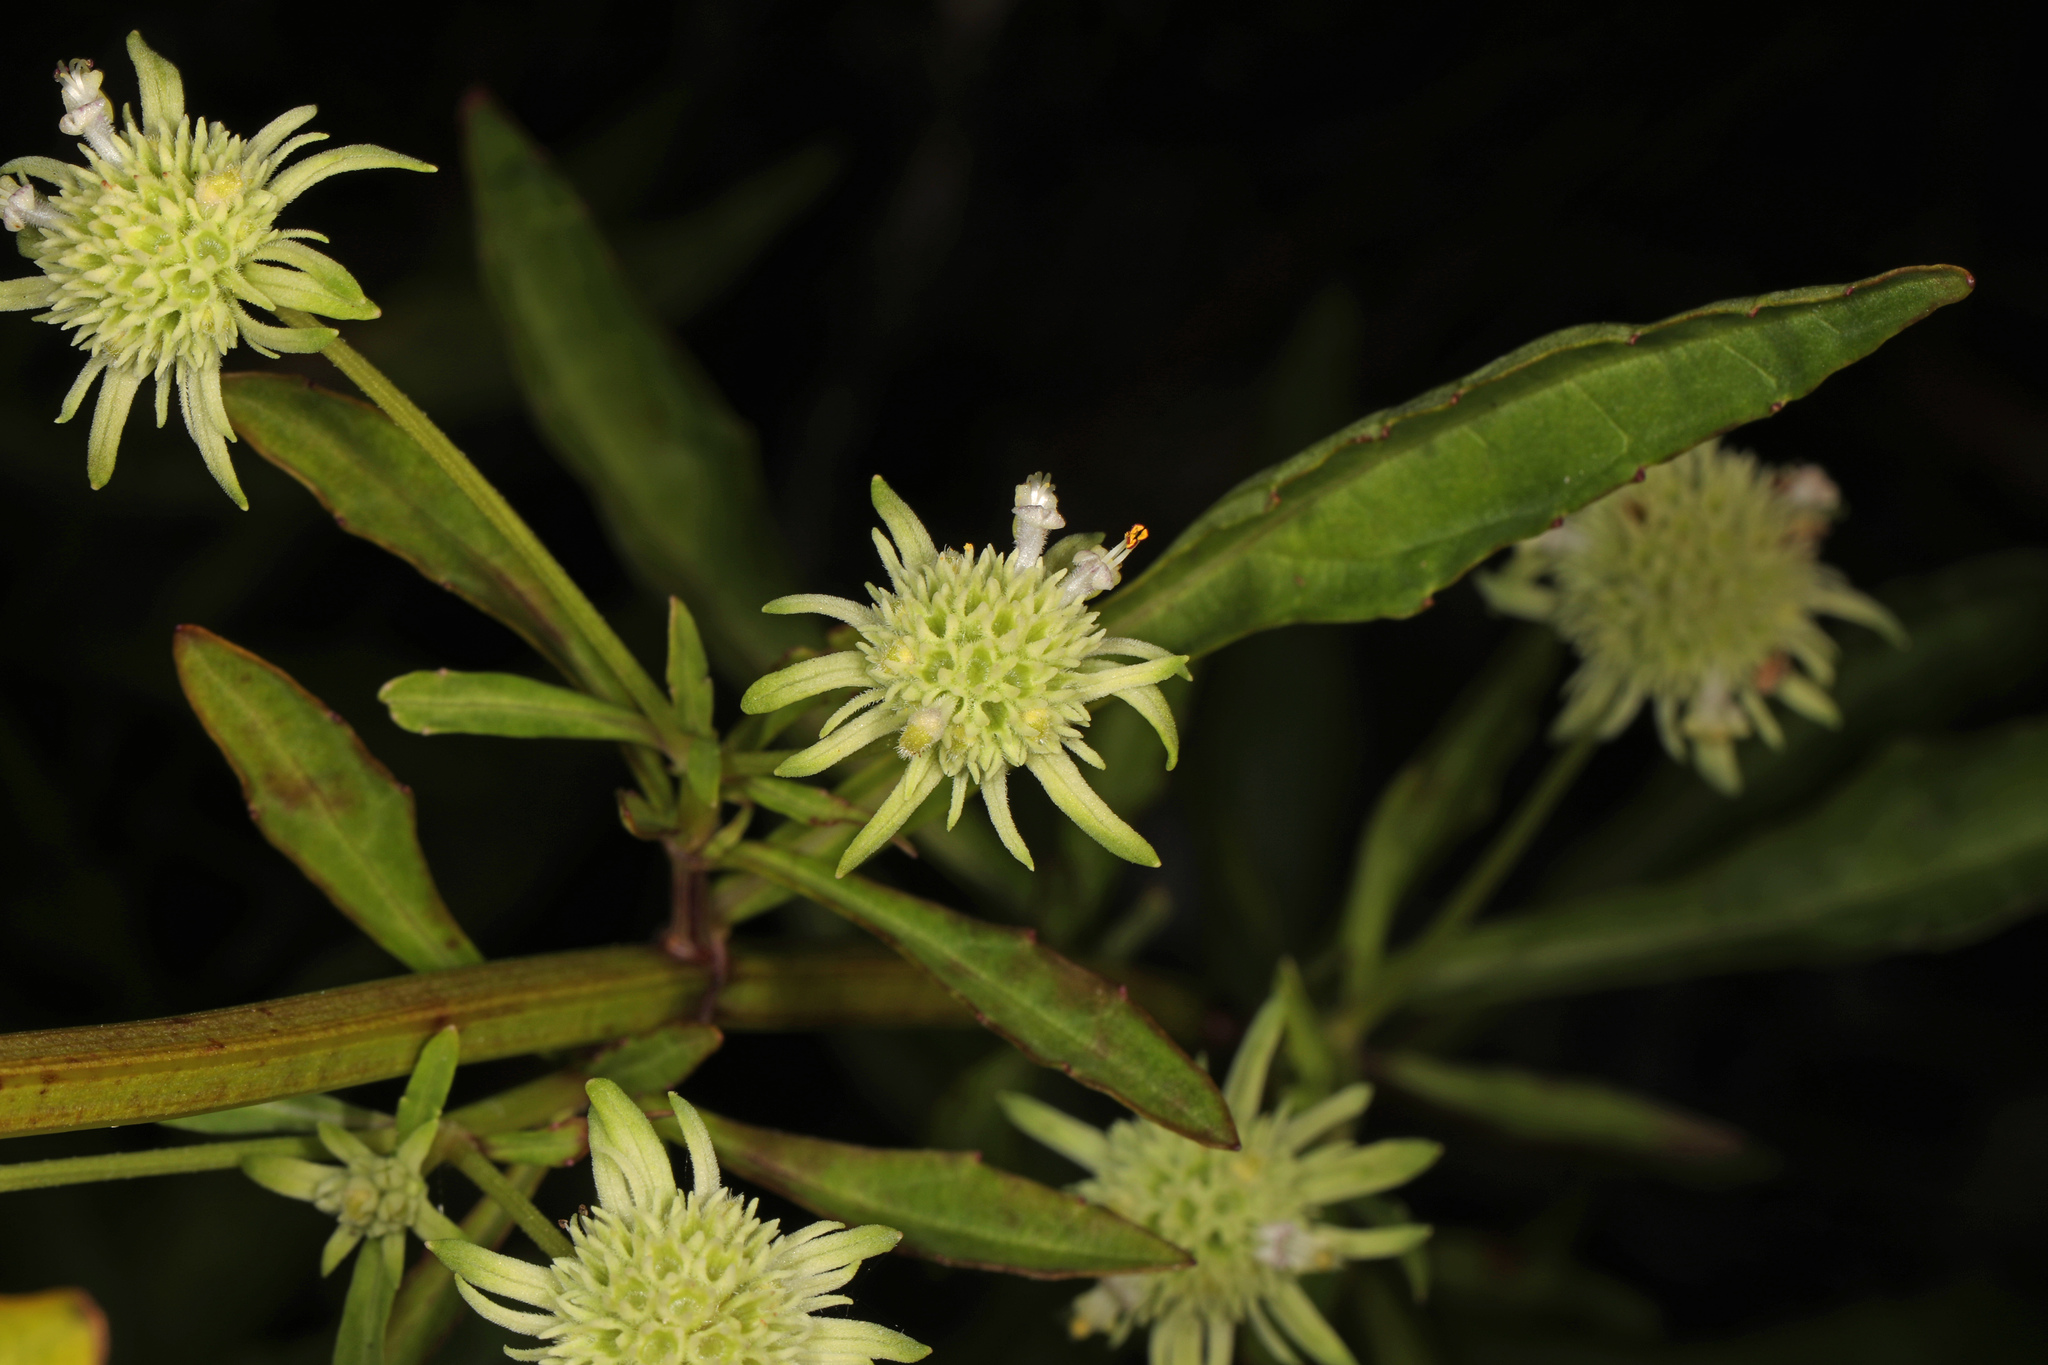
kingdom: Plantae
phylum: Tracheophyta
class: Magnoliopsida
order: Lamiales
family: Lamiaceae
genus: Hyptis
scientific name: Hyptis alata
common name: Cluster bush-mint
